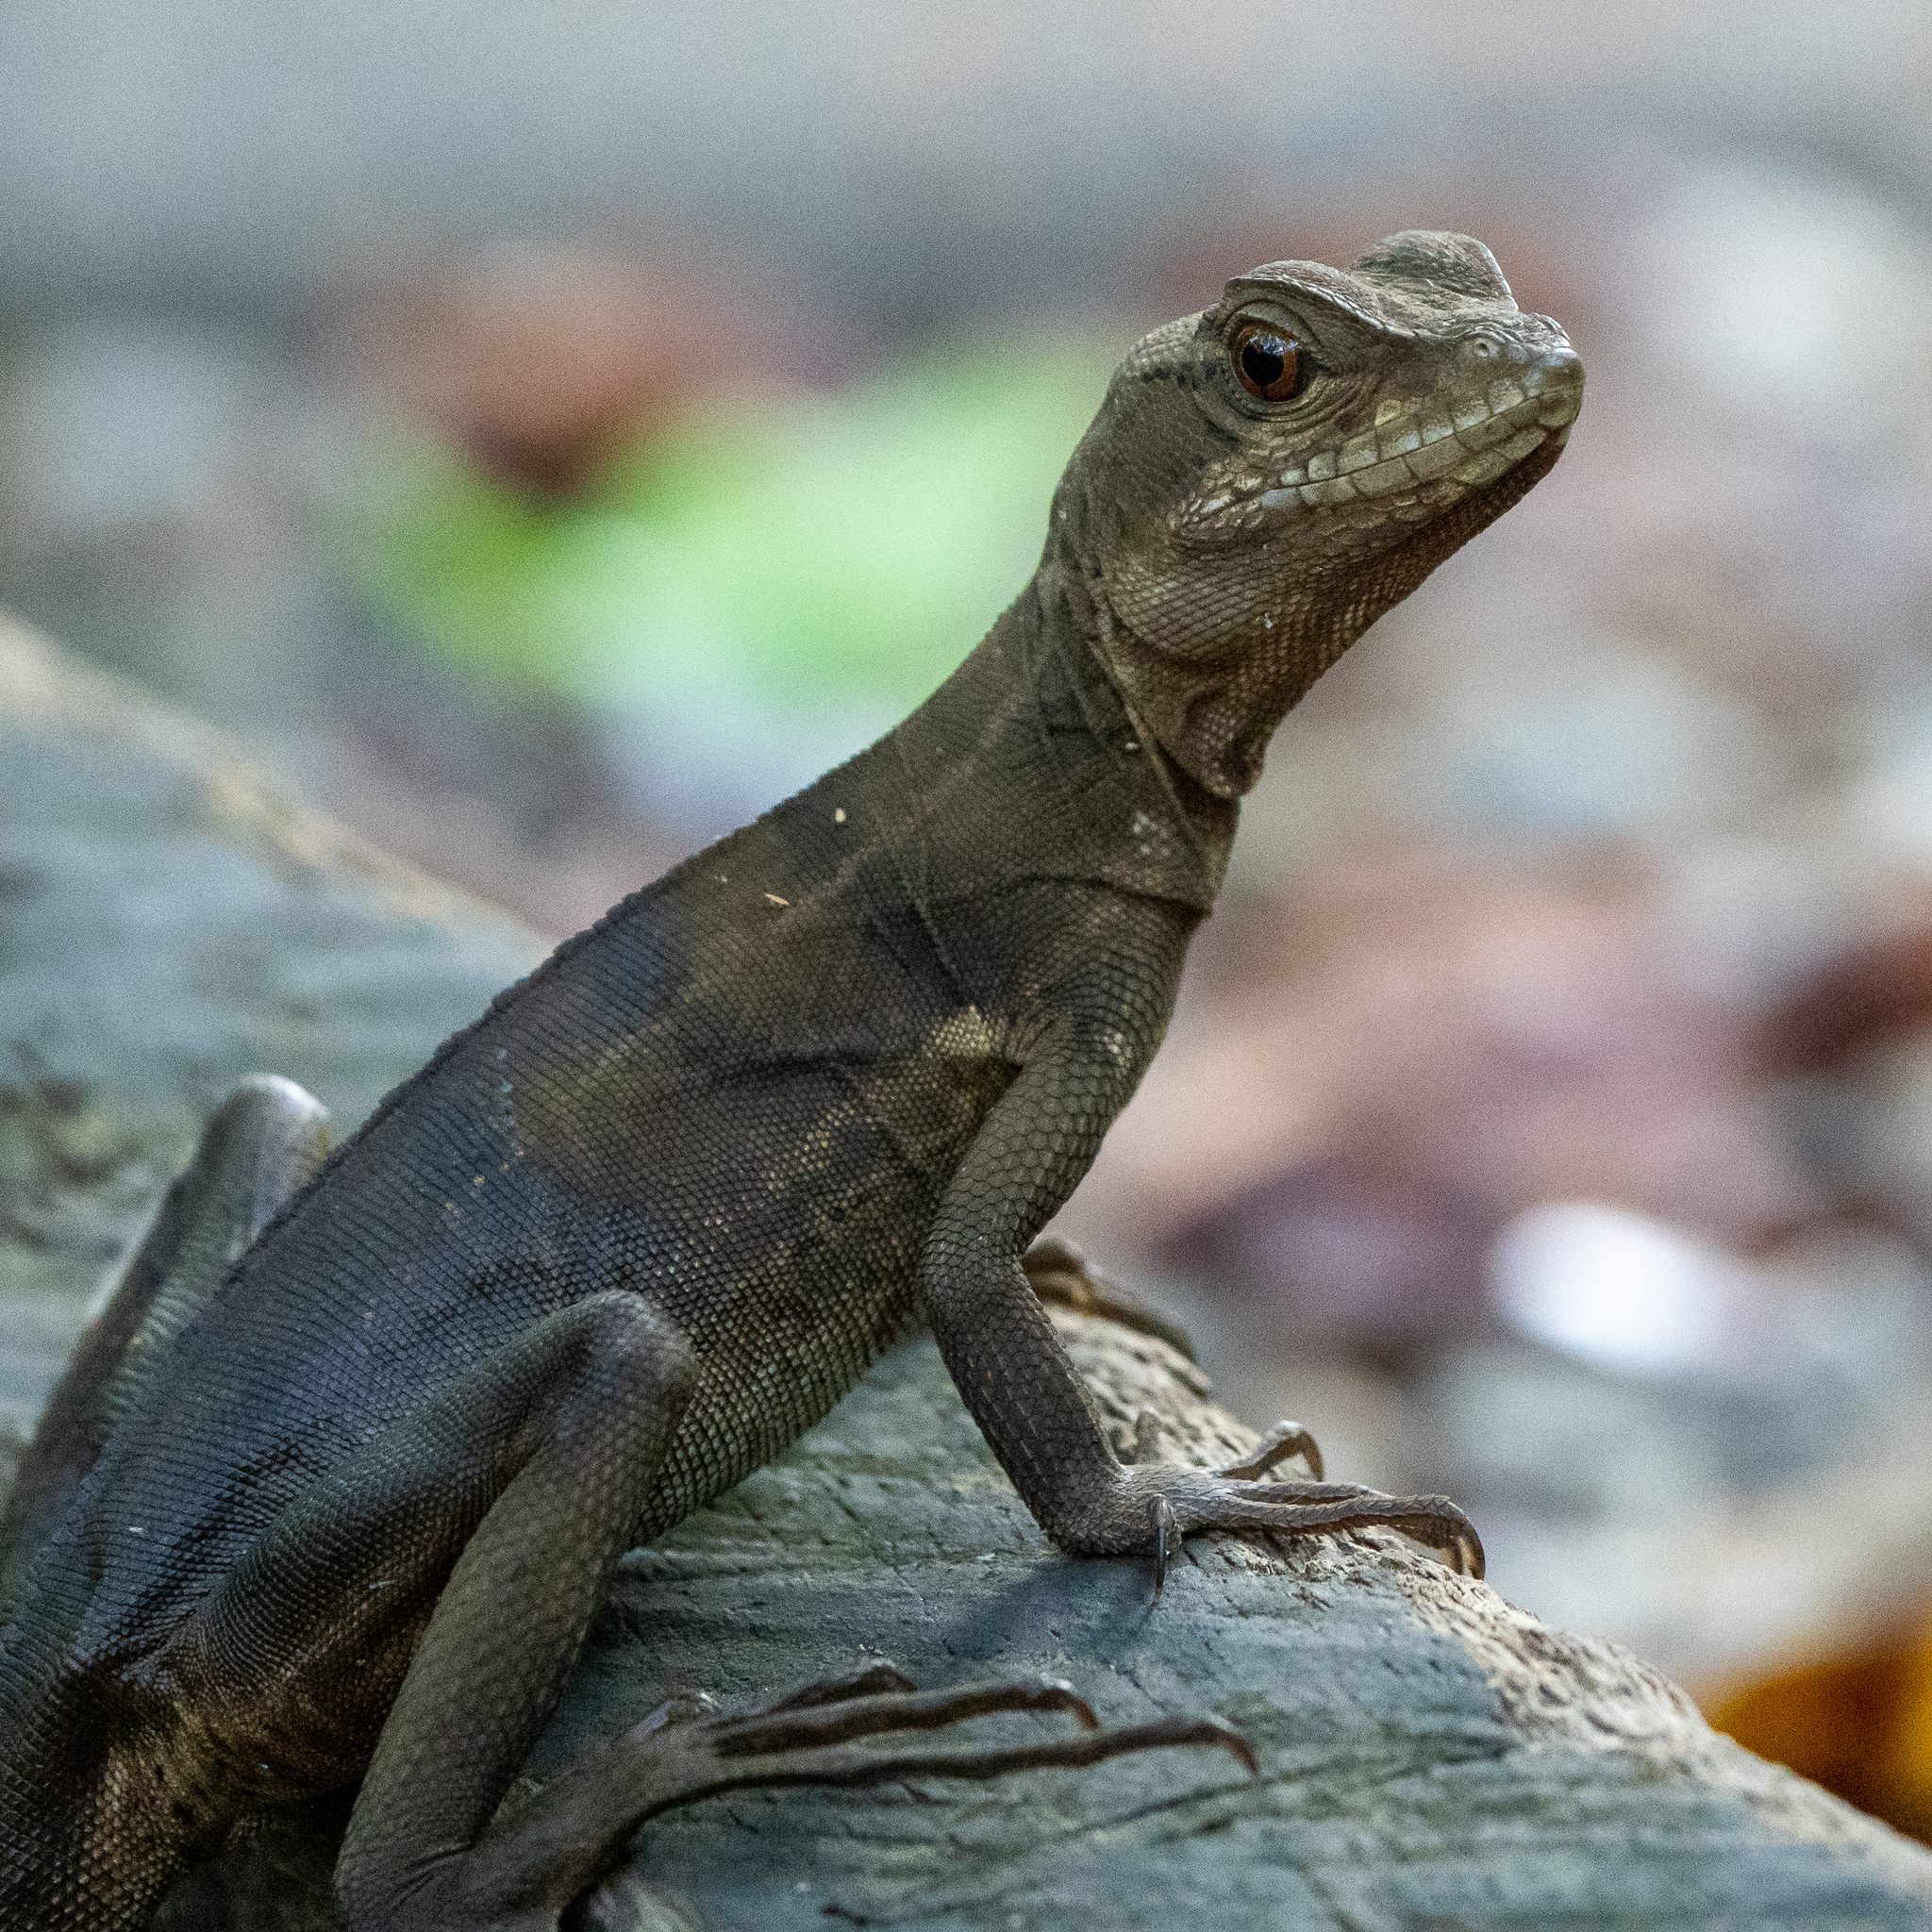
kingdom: Animalia
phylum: Chordata
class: Squamata
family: Corytophanidae
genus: Basiliscus
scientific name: Basiliscus basiliscus
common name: Common basilisk
